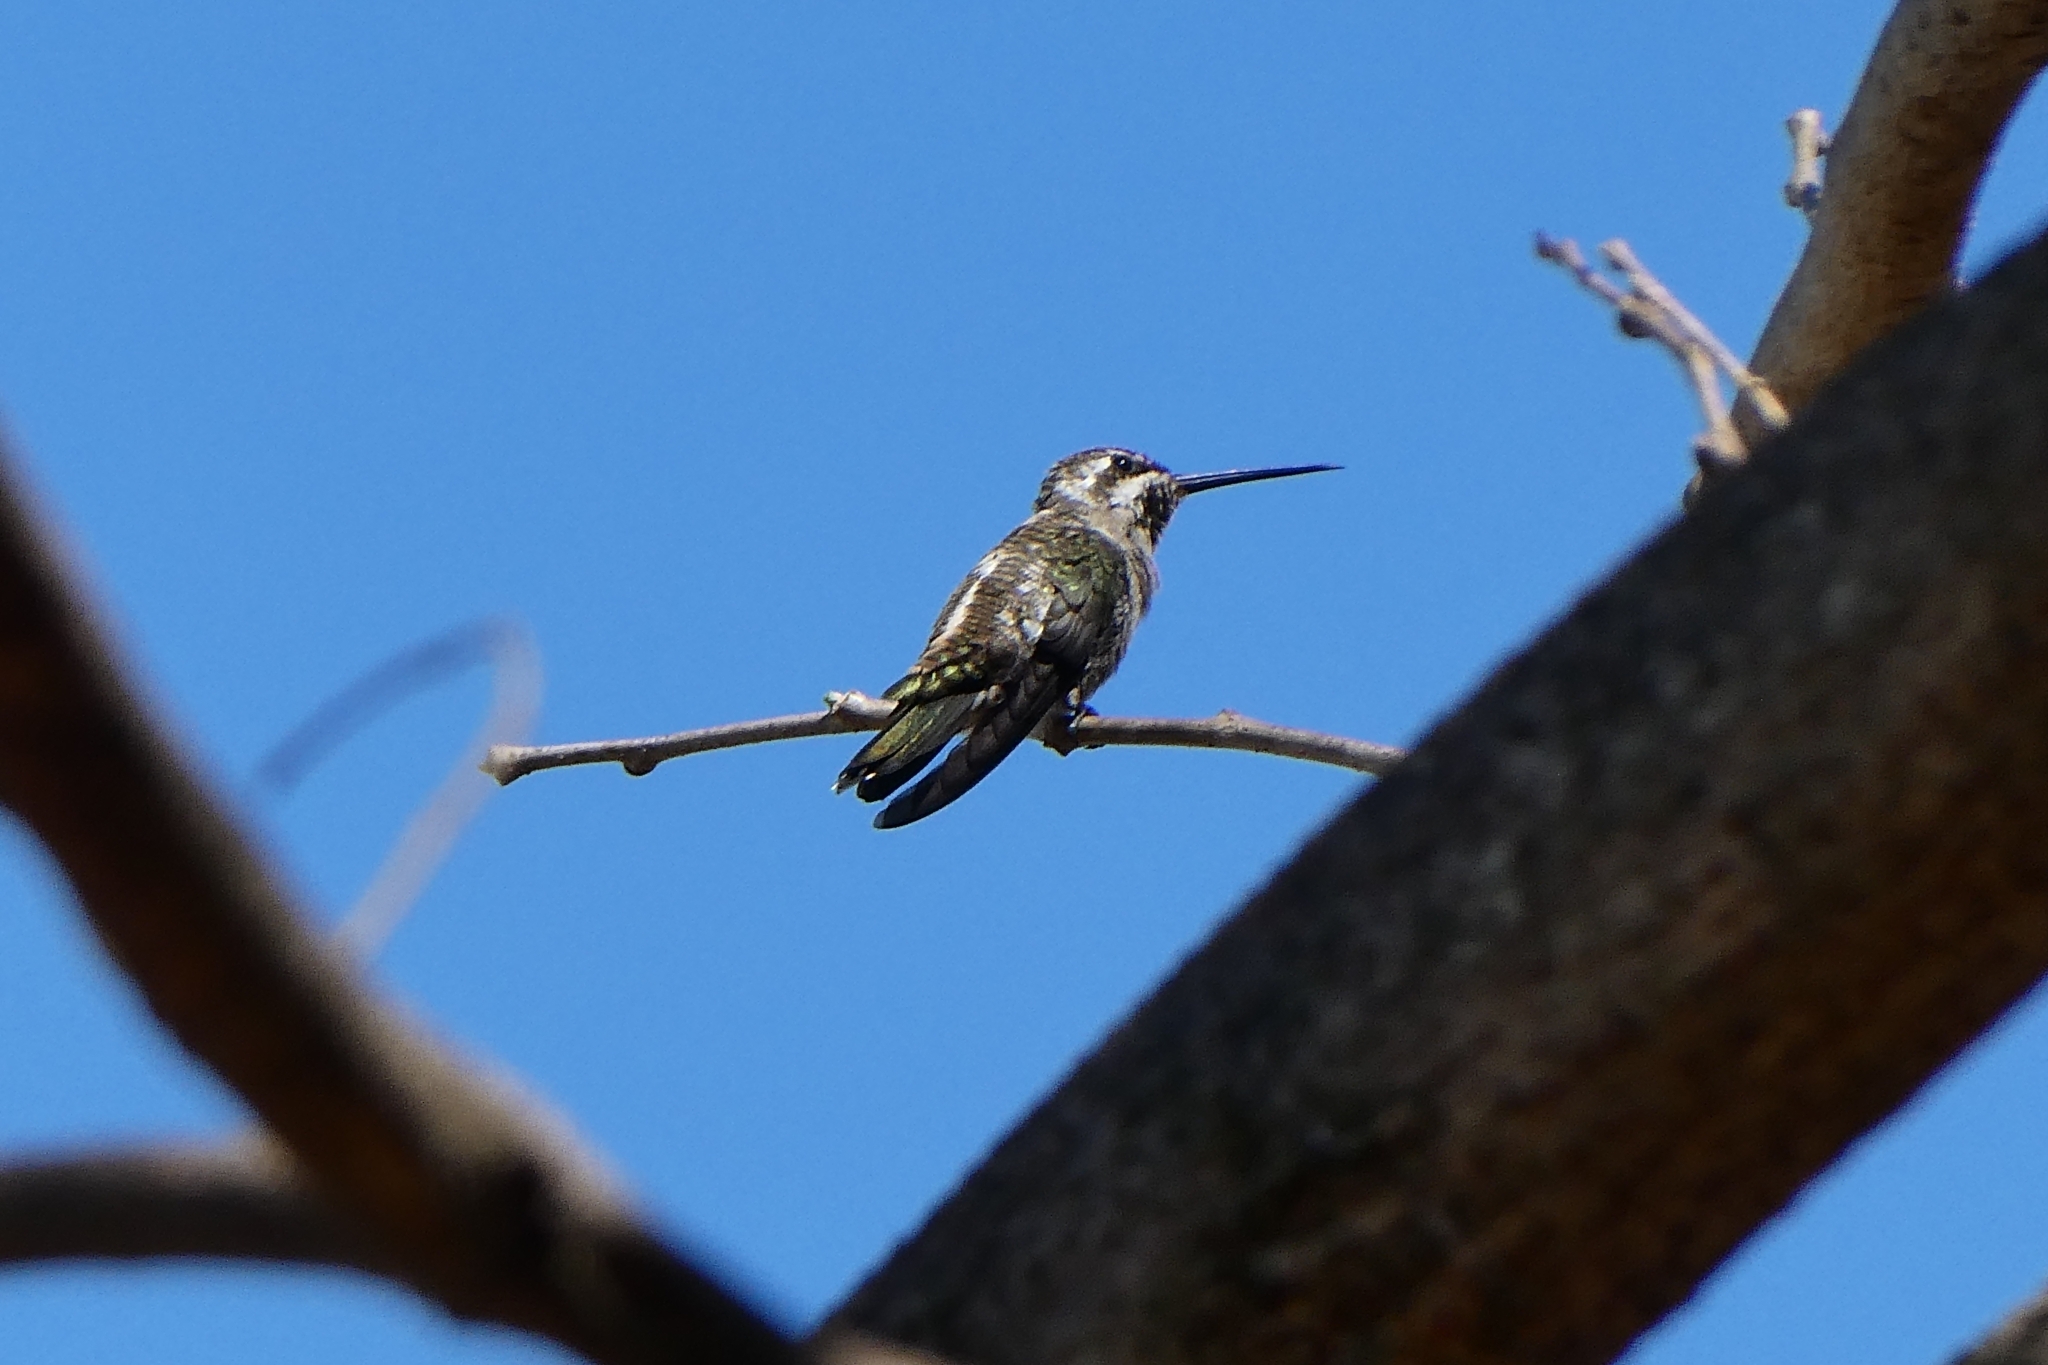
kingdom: Animalia
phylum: Chordata
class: Aves
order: Apodiformes
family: Trochilidae
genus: Heliomaster
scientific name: Heliomaster constantii
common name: Plain-capped starthroat
